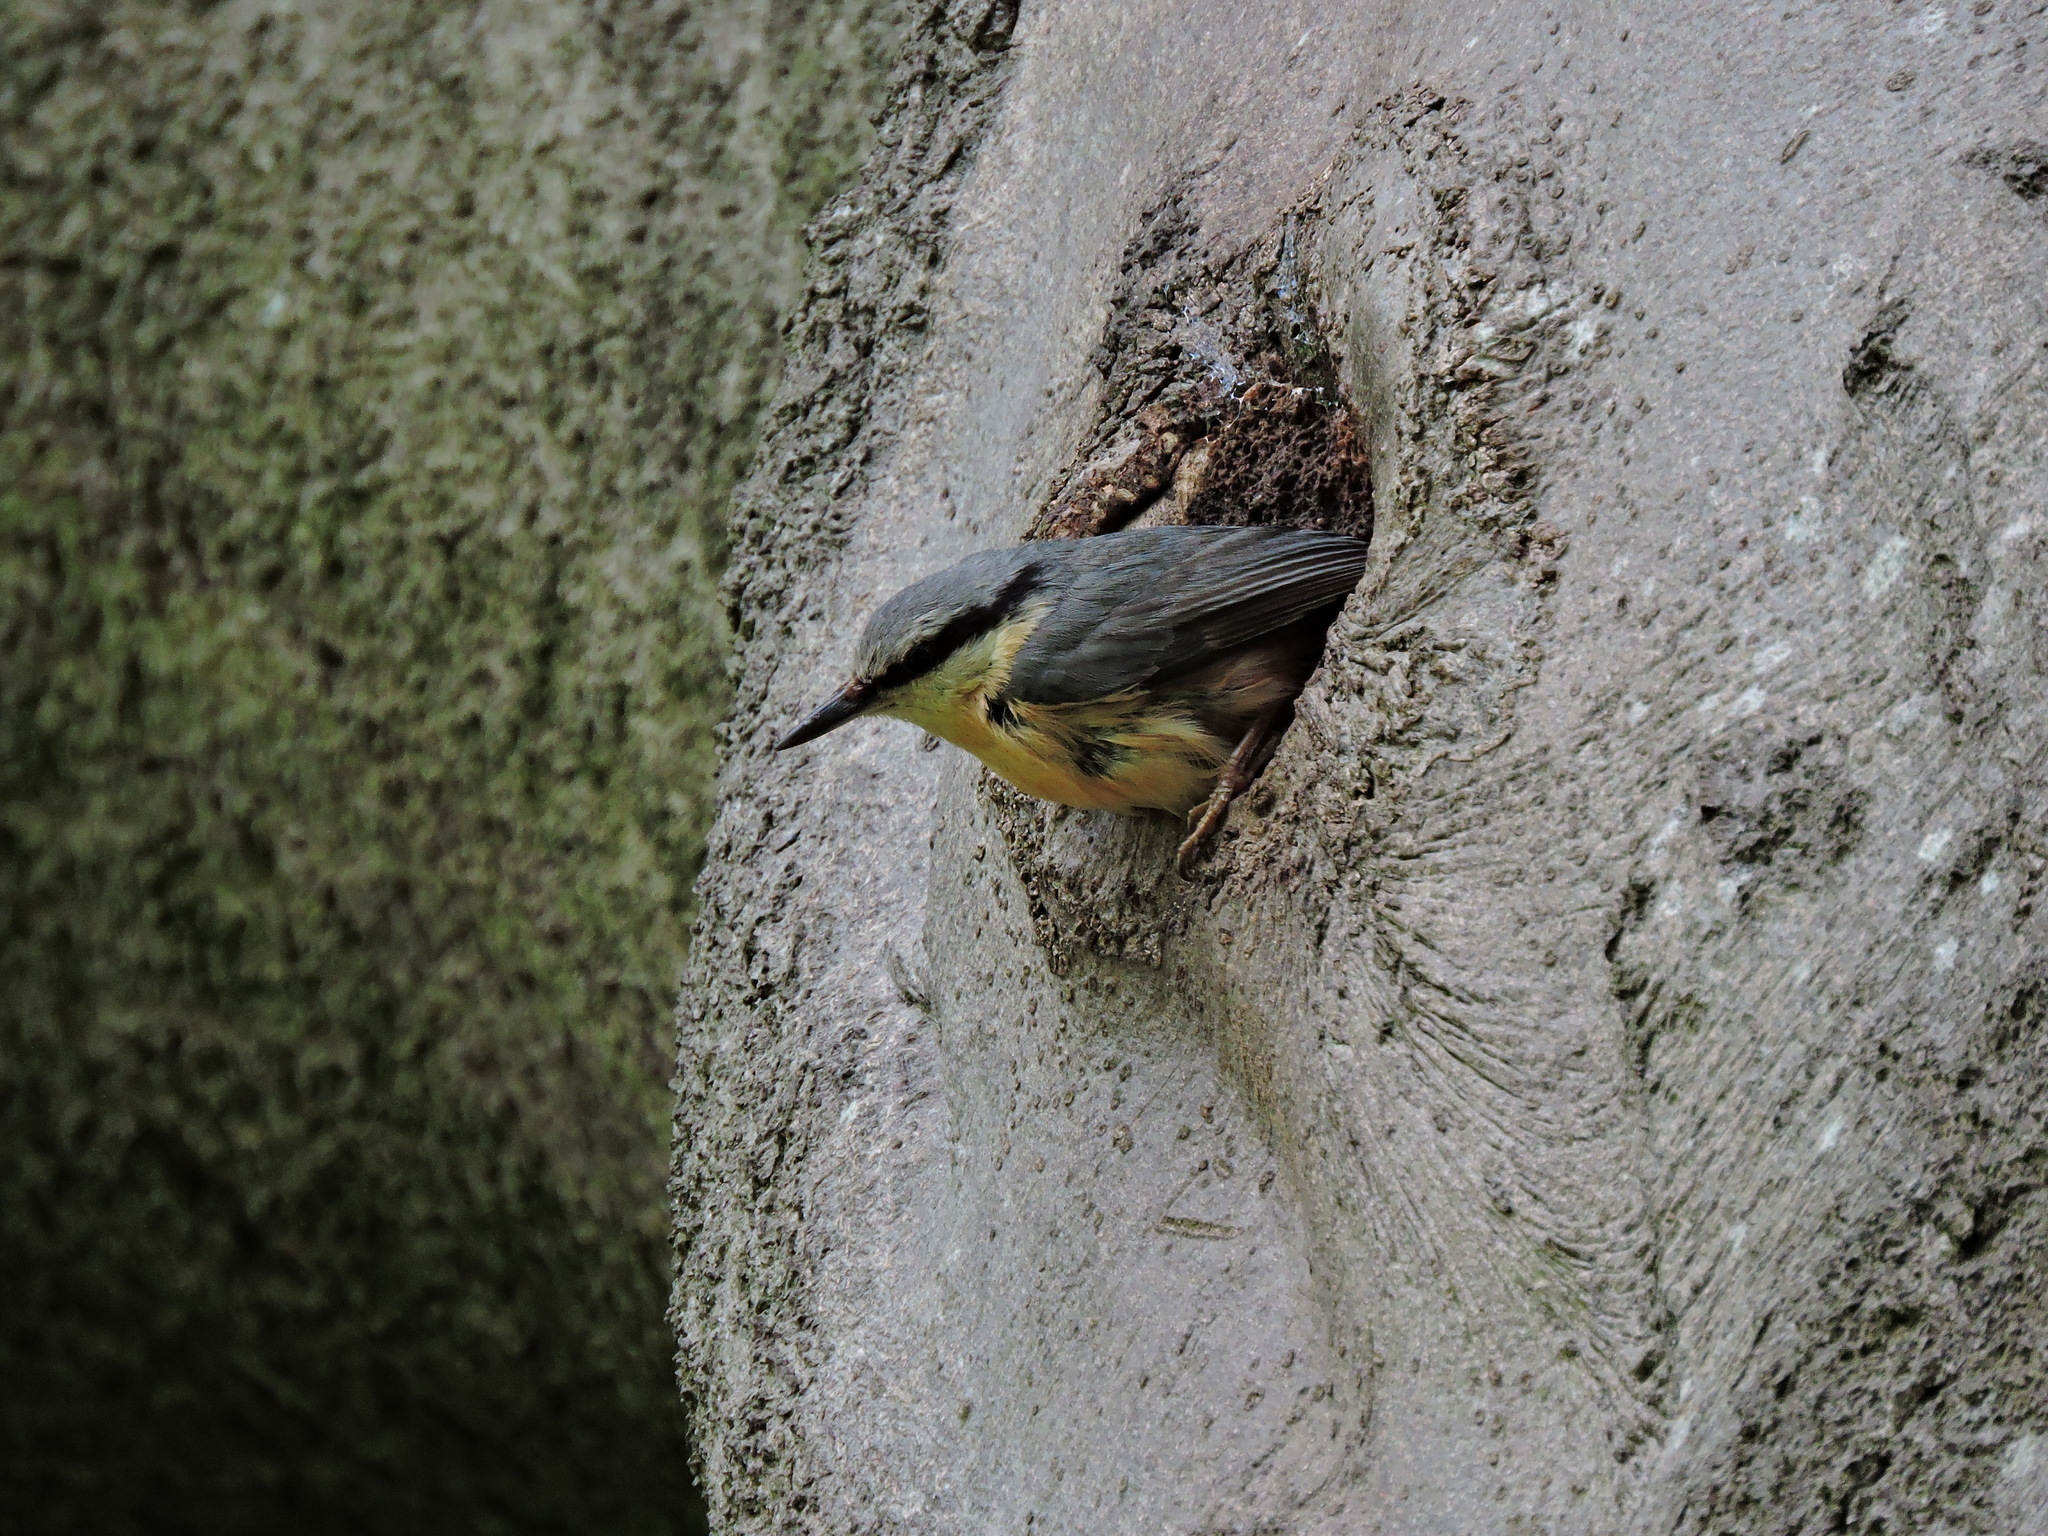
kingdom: Animalia
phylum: Chordata
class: Aves
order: Passeriformes
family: Sittidae
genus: Sitta
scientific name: Sitta europaea
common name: Eurasian nuthatch
